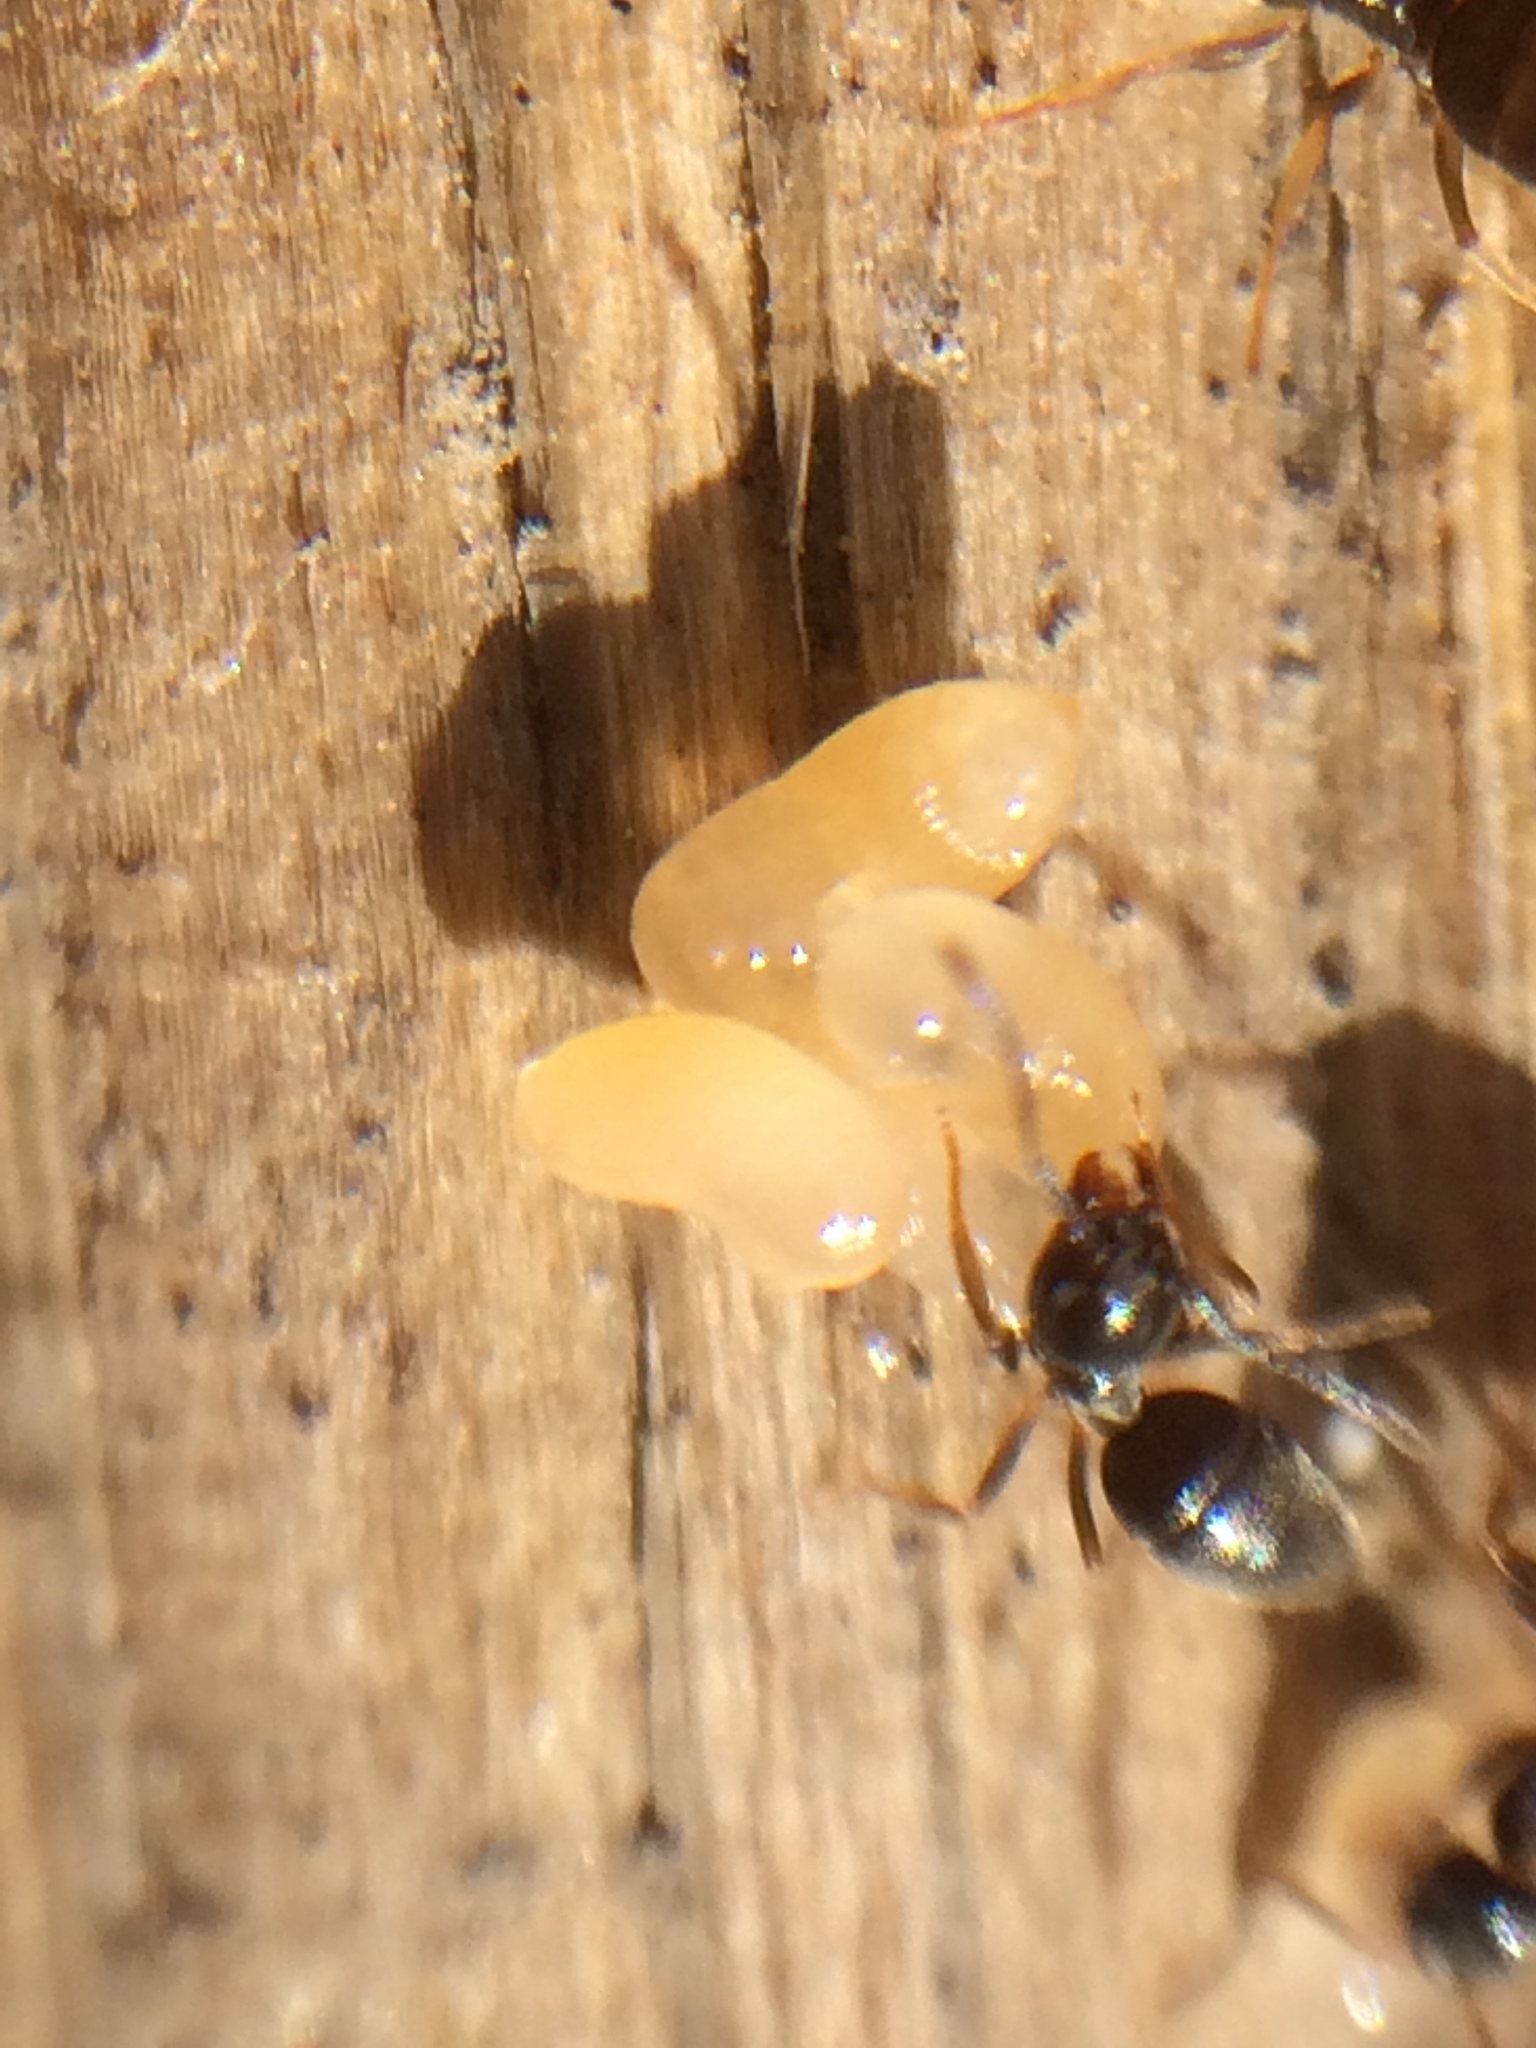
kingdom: Animalia
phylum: Arthropoda
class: Insecta
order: Hymenoptera
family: Formicidae
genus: Tapinoma
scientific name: Tapinoma sessile
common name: Odorous house ant
